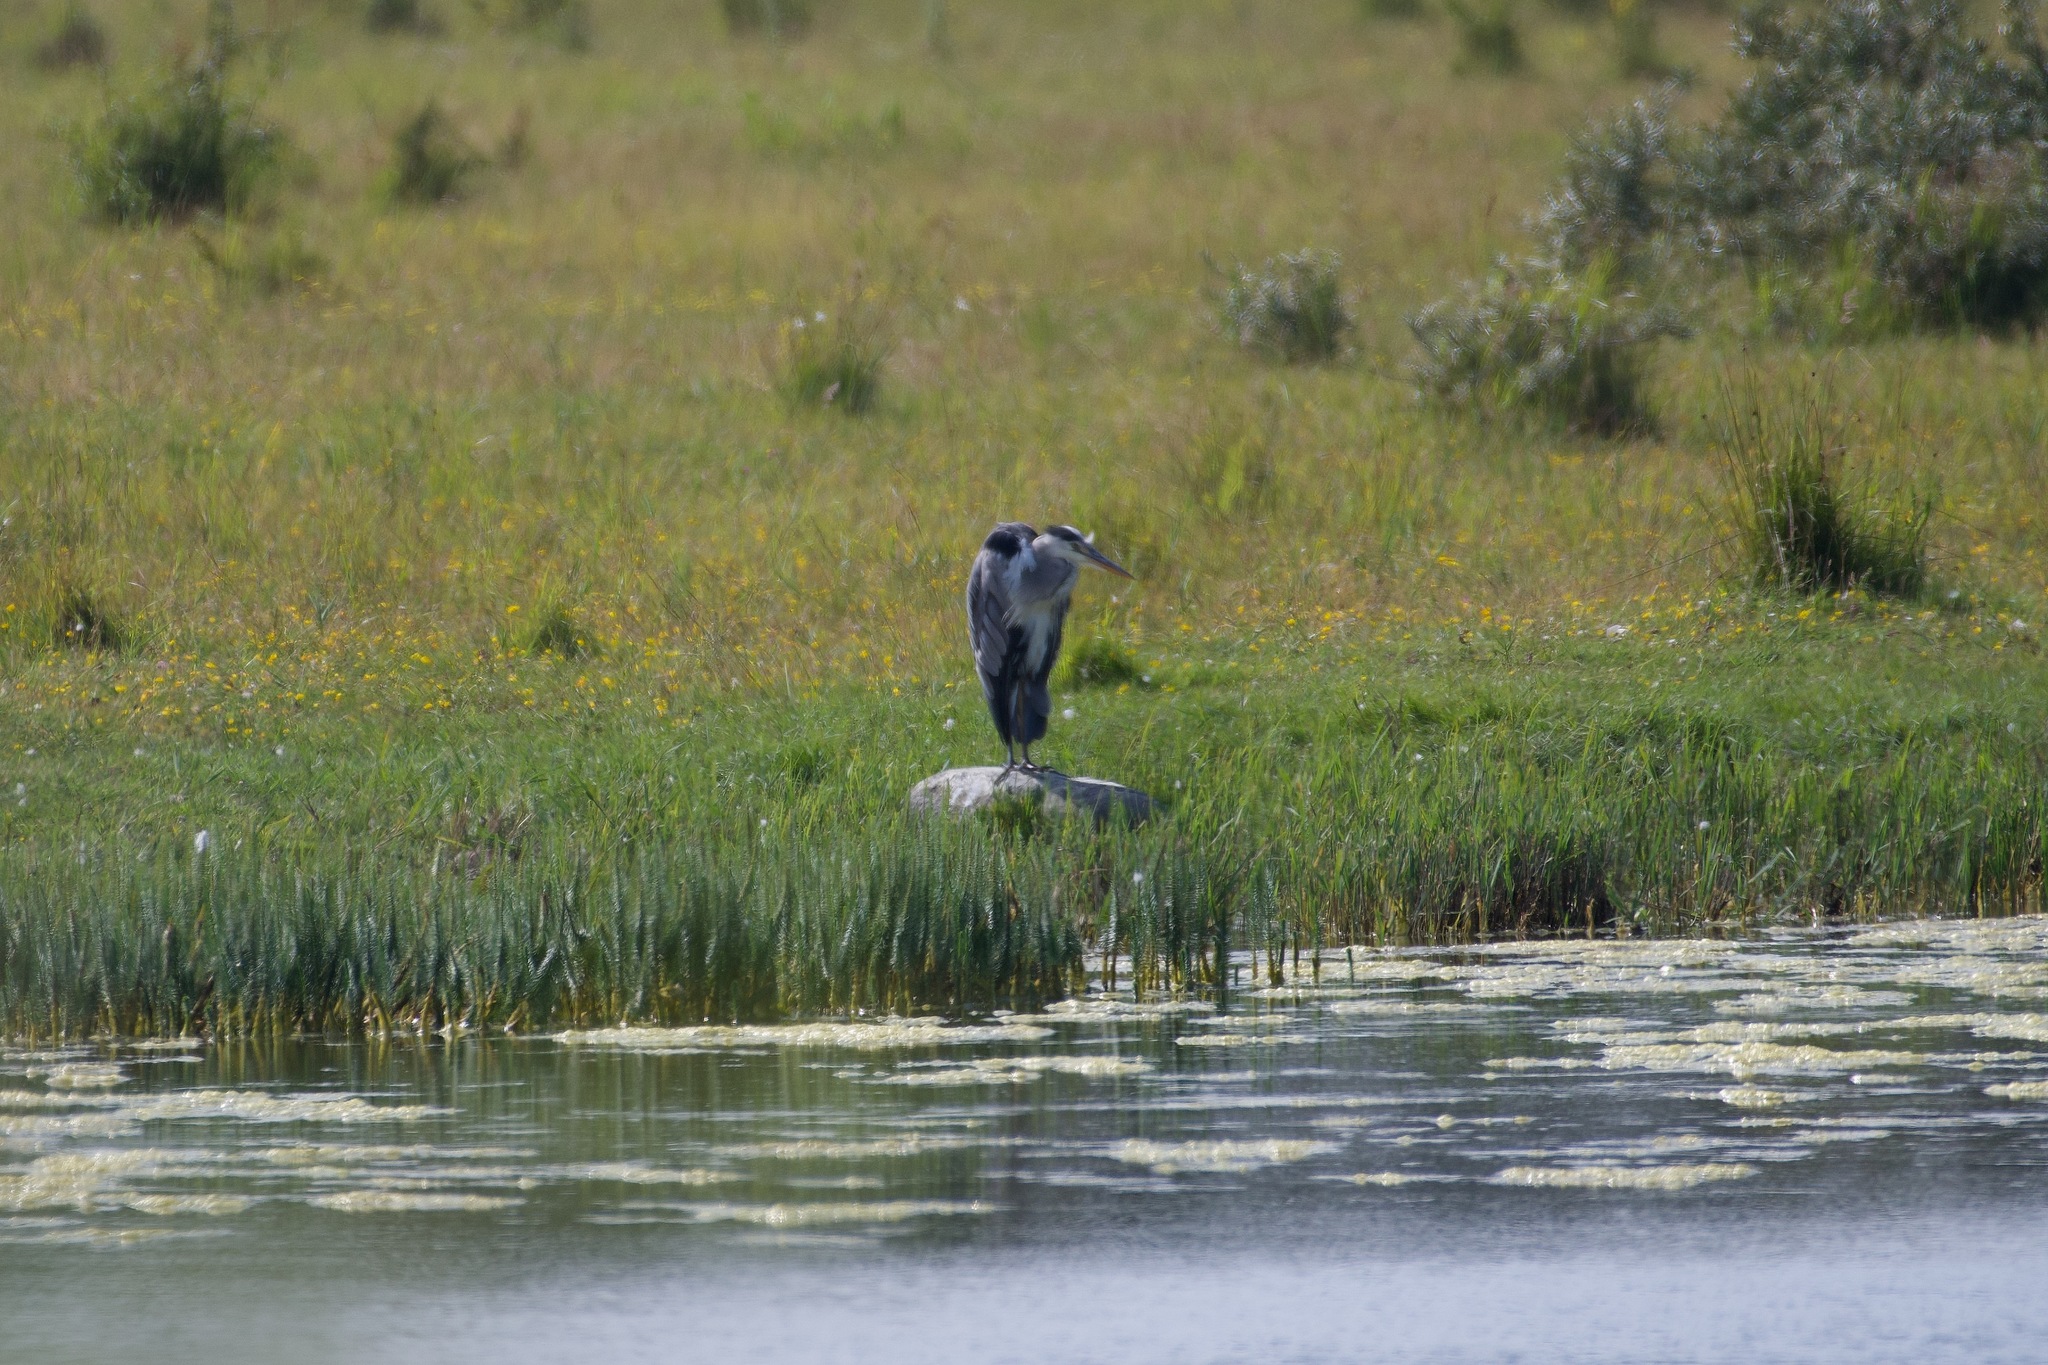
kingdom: Animalia
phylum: Chordata
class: Aves
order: Pelecaniformes
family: Ardeidae
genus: Ardea
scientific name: Ardea cinerea
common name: Grey heron
